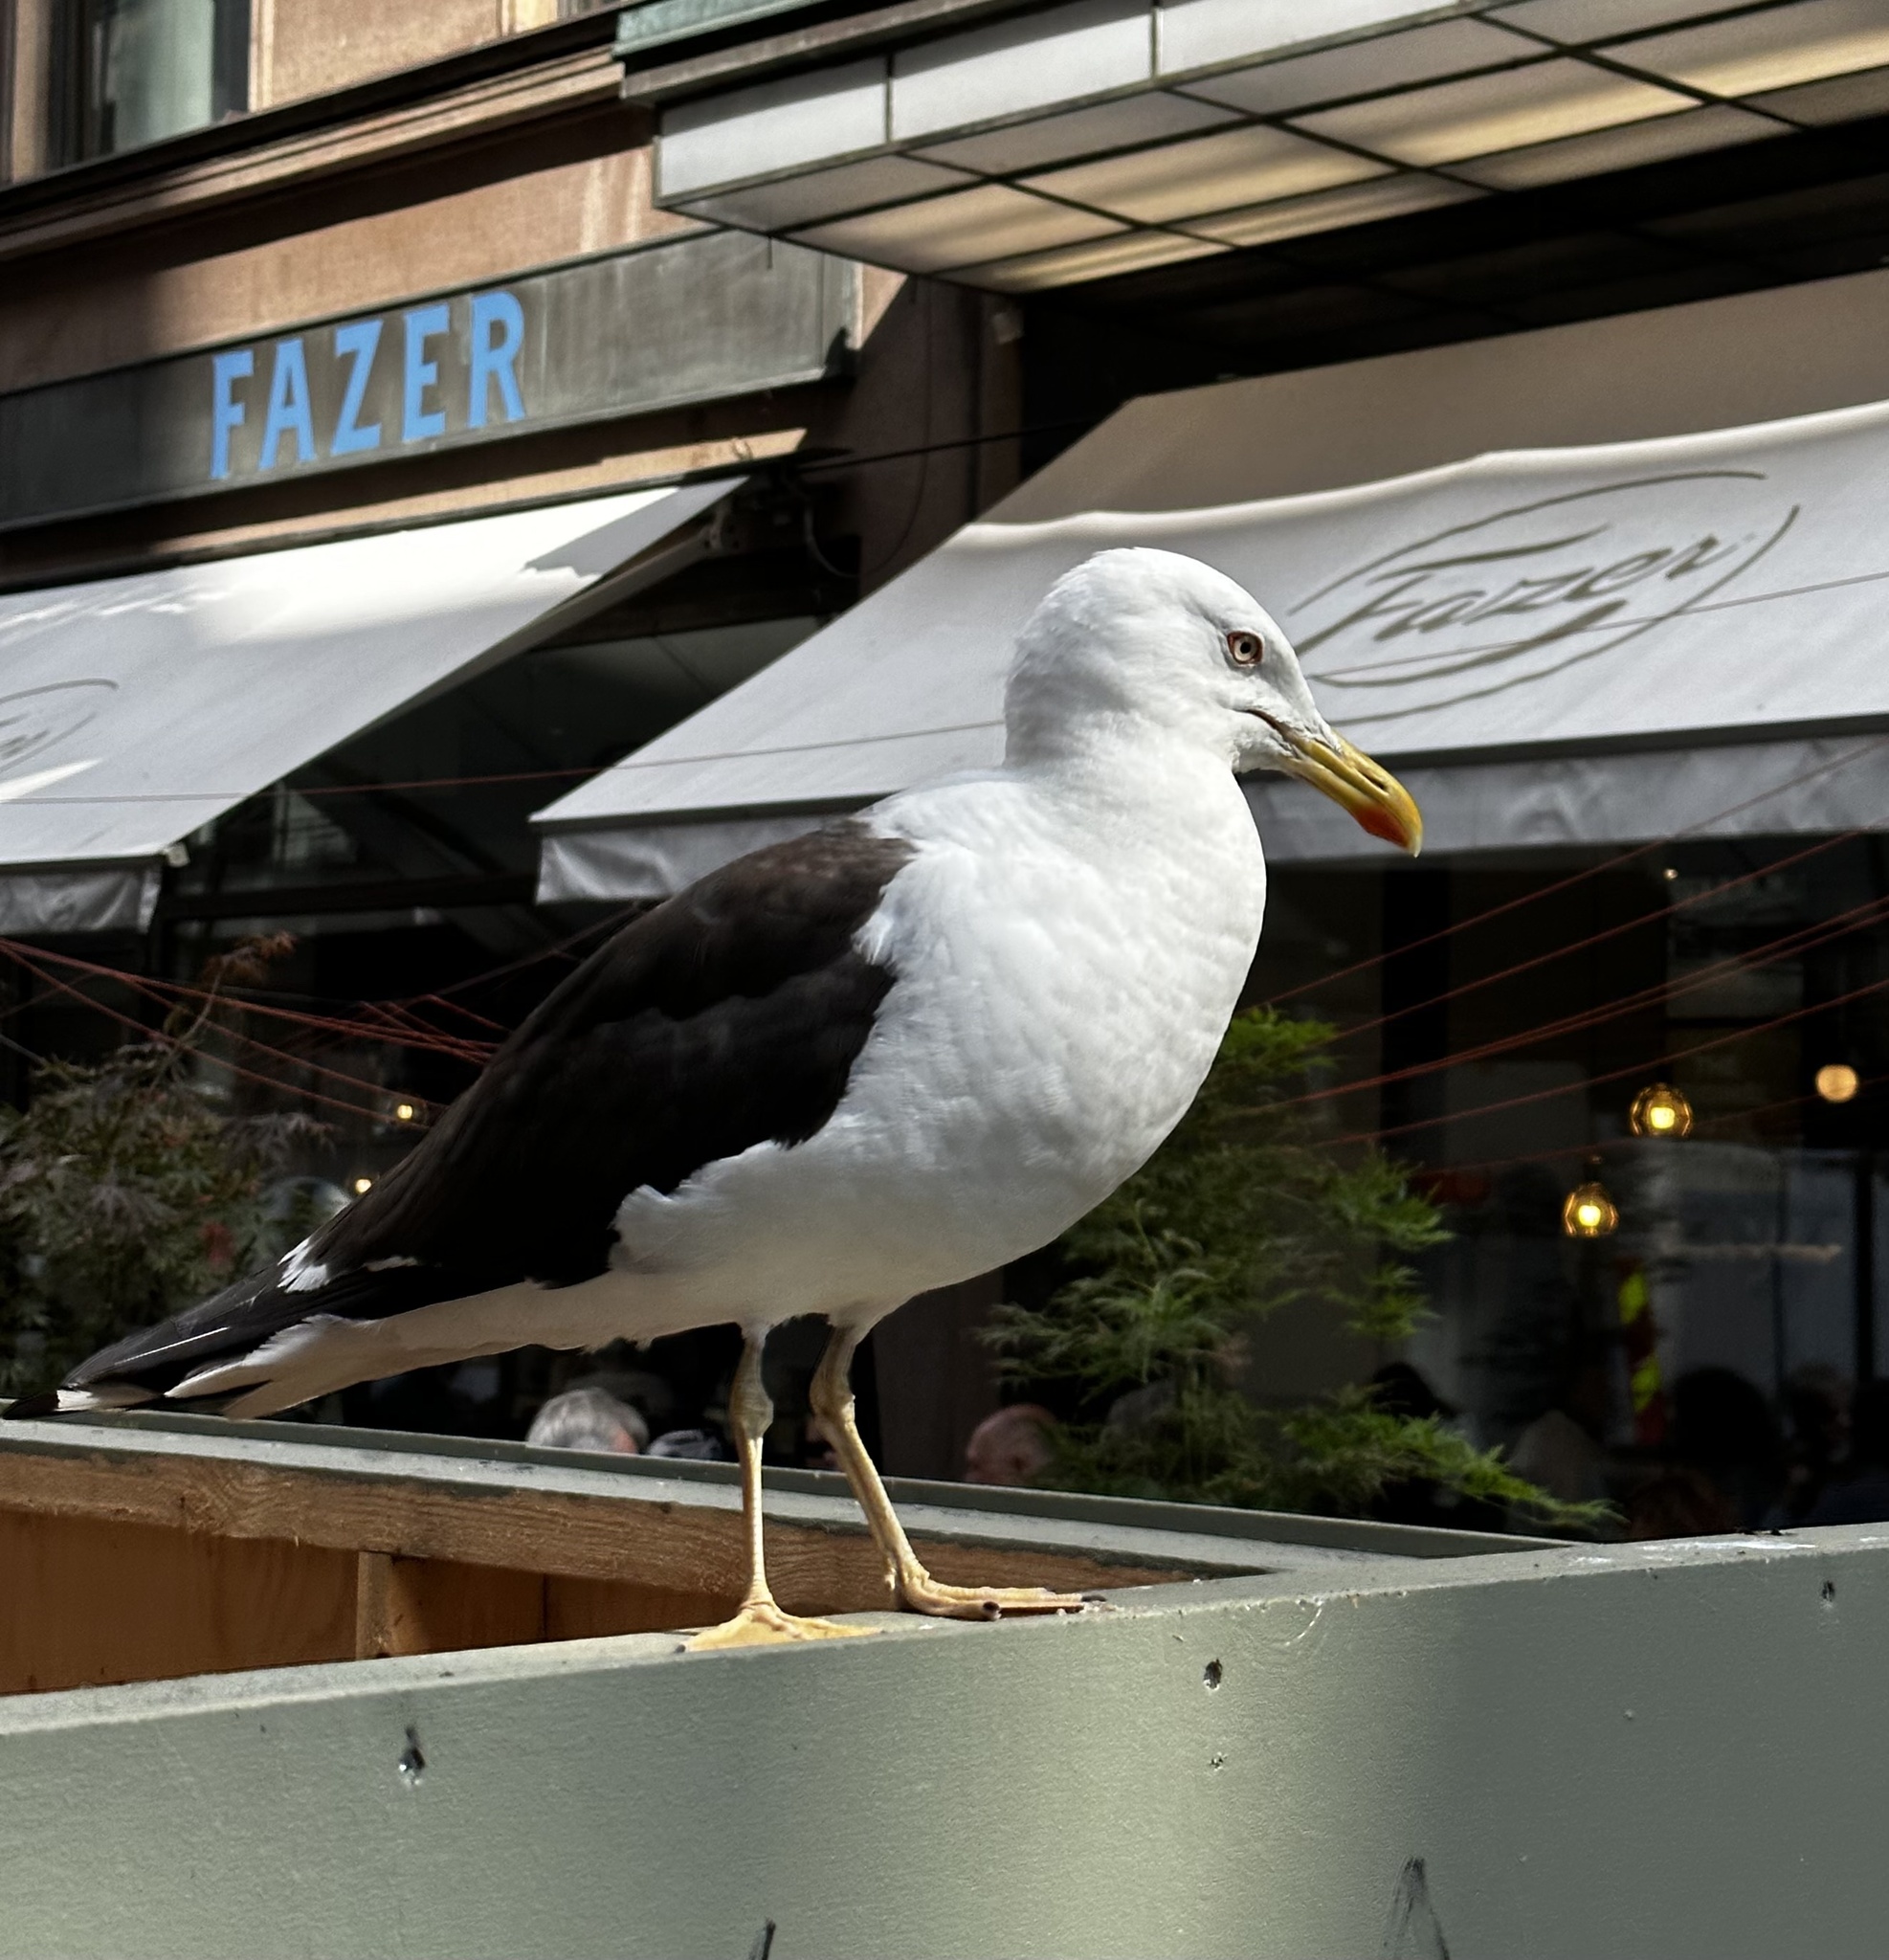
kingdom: Animalia
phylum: Chordata
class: Aves
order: Charadriiformes
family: Laridae
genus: Larus
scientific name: Larus fuscus
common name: Lesser black-backed gull
